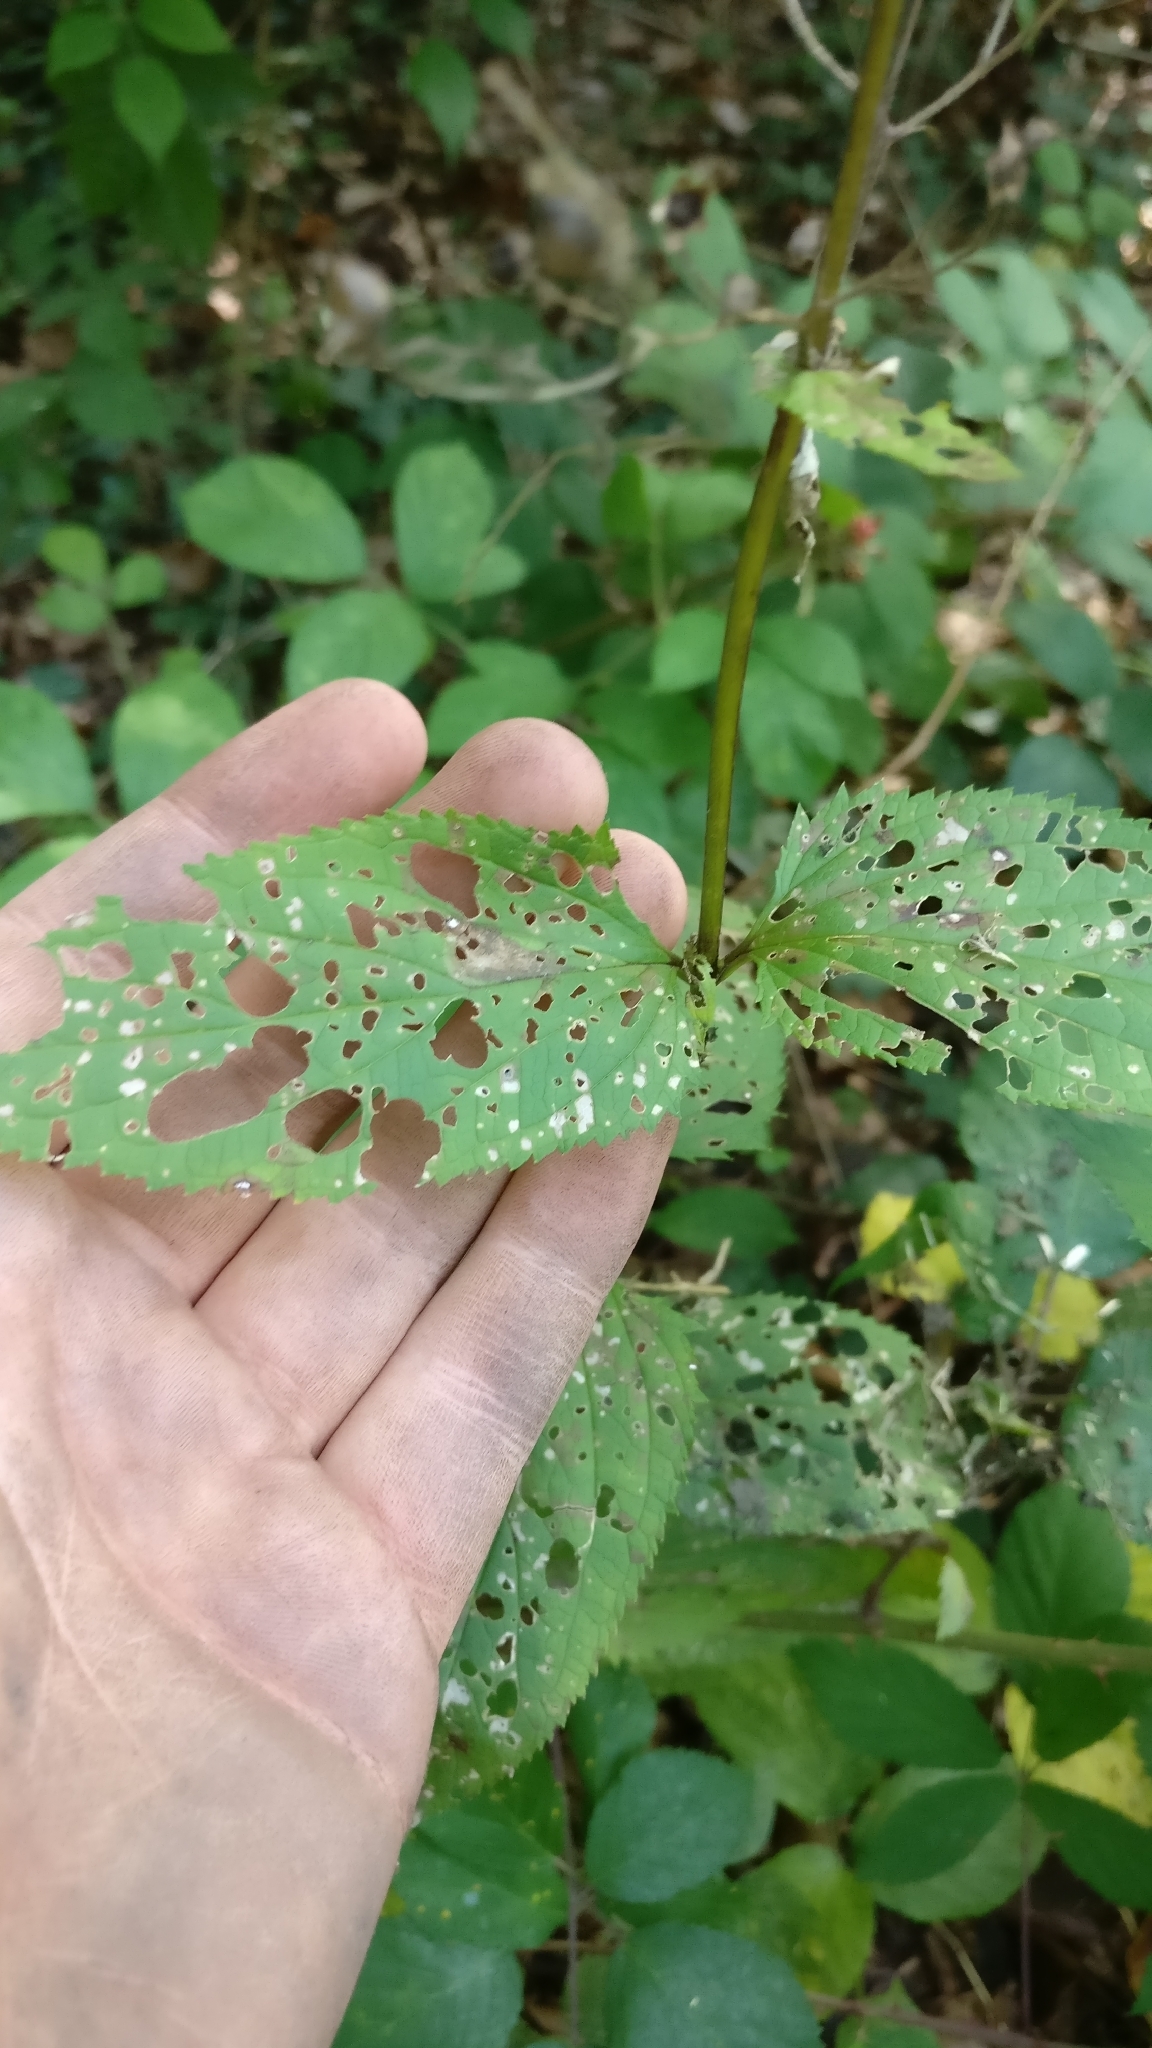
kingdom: Plantae
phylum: Tracheophyta
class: Magnoliopsida
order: Lamiales
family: Scrophulariaceae
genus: Scrophularia
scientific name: Scrophularia nodosa
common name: Common figwort
